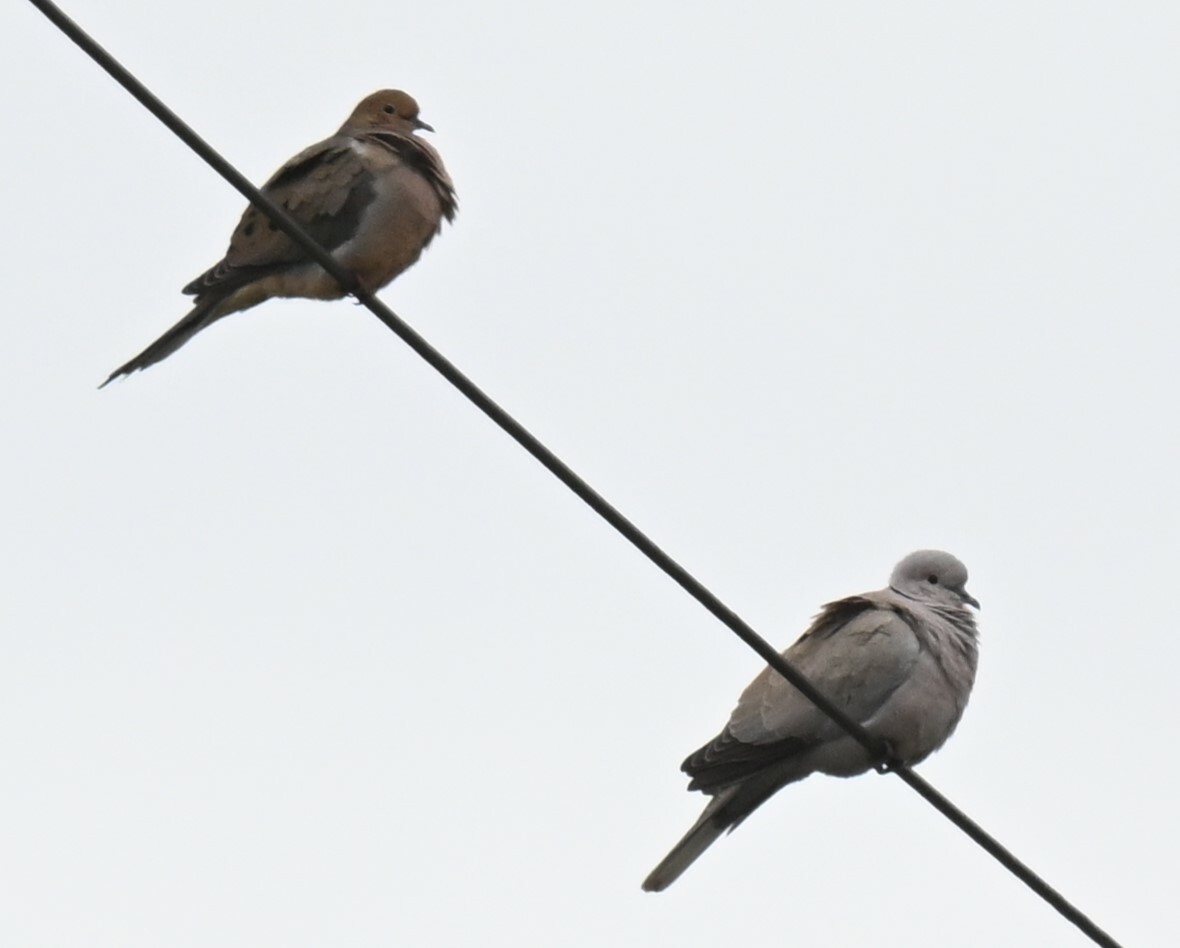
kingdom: Animalia
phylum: Chordata
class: Aves
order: Columbiformes
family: Columbidae
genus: Zenaida
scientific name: Zenaida macroura
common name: Mourning dove
